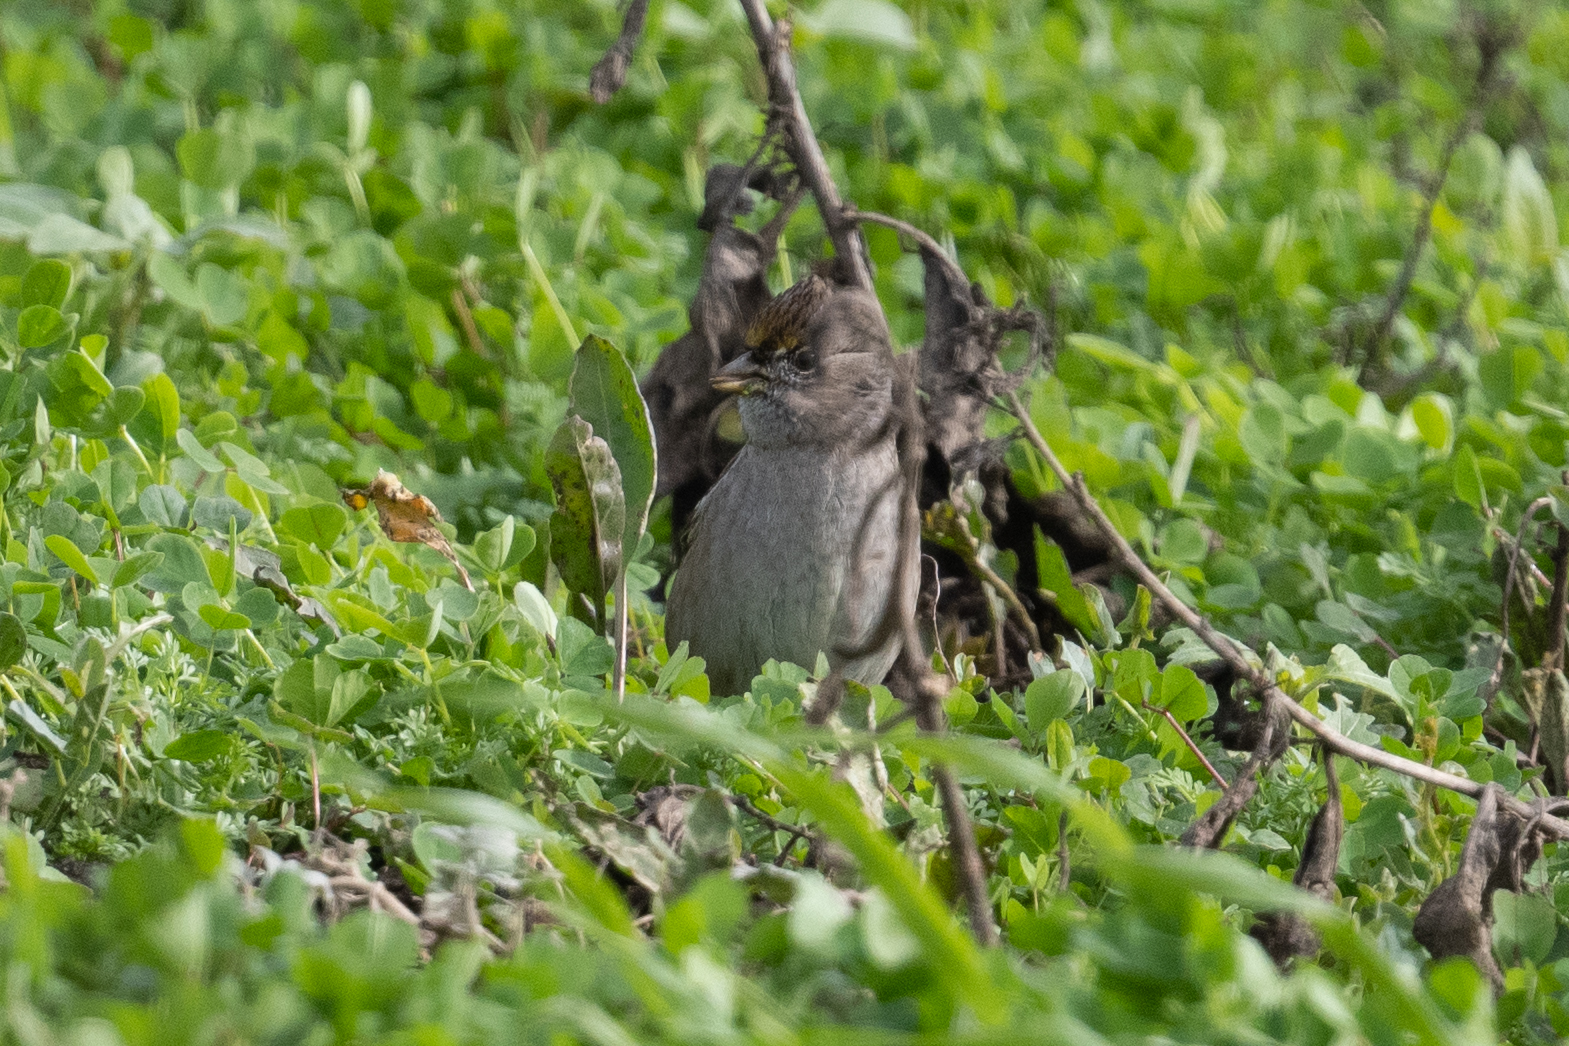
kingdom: Animalia
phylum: Chordata
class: Aves
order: Passeriformes
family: Passerellidae
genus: Zonotrichia
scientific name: Zonotrichia atricapilla
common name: Golden-crowned sparrow
